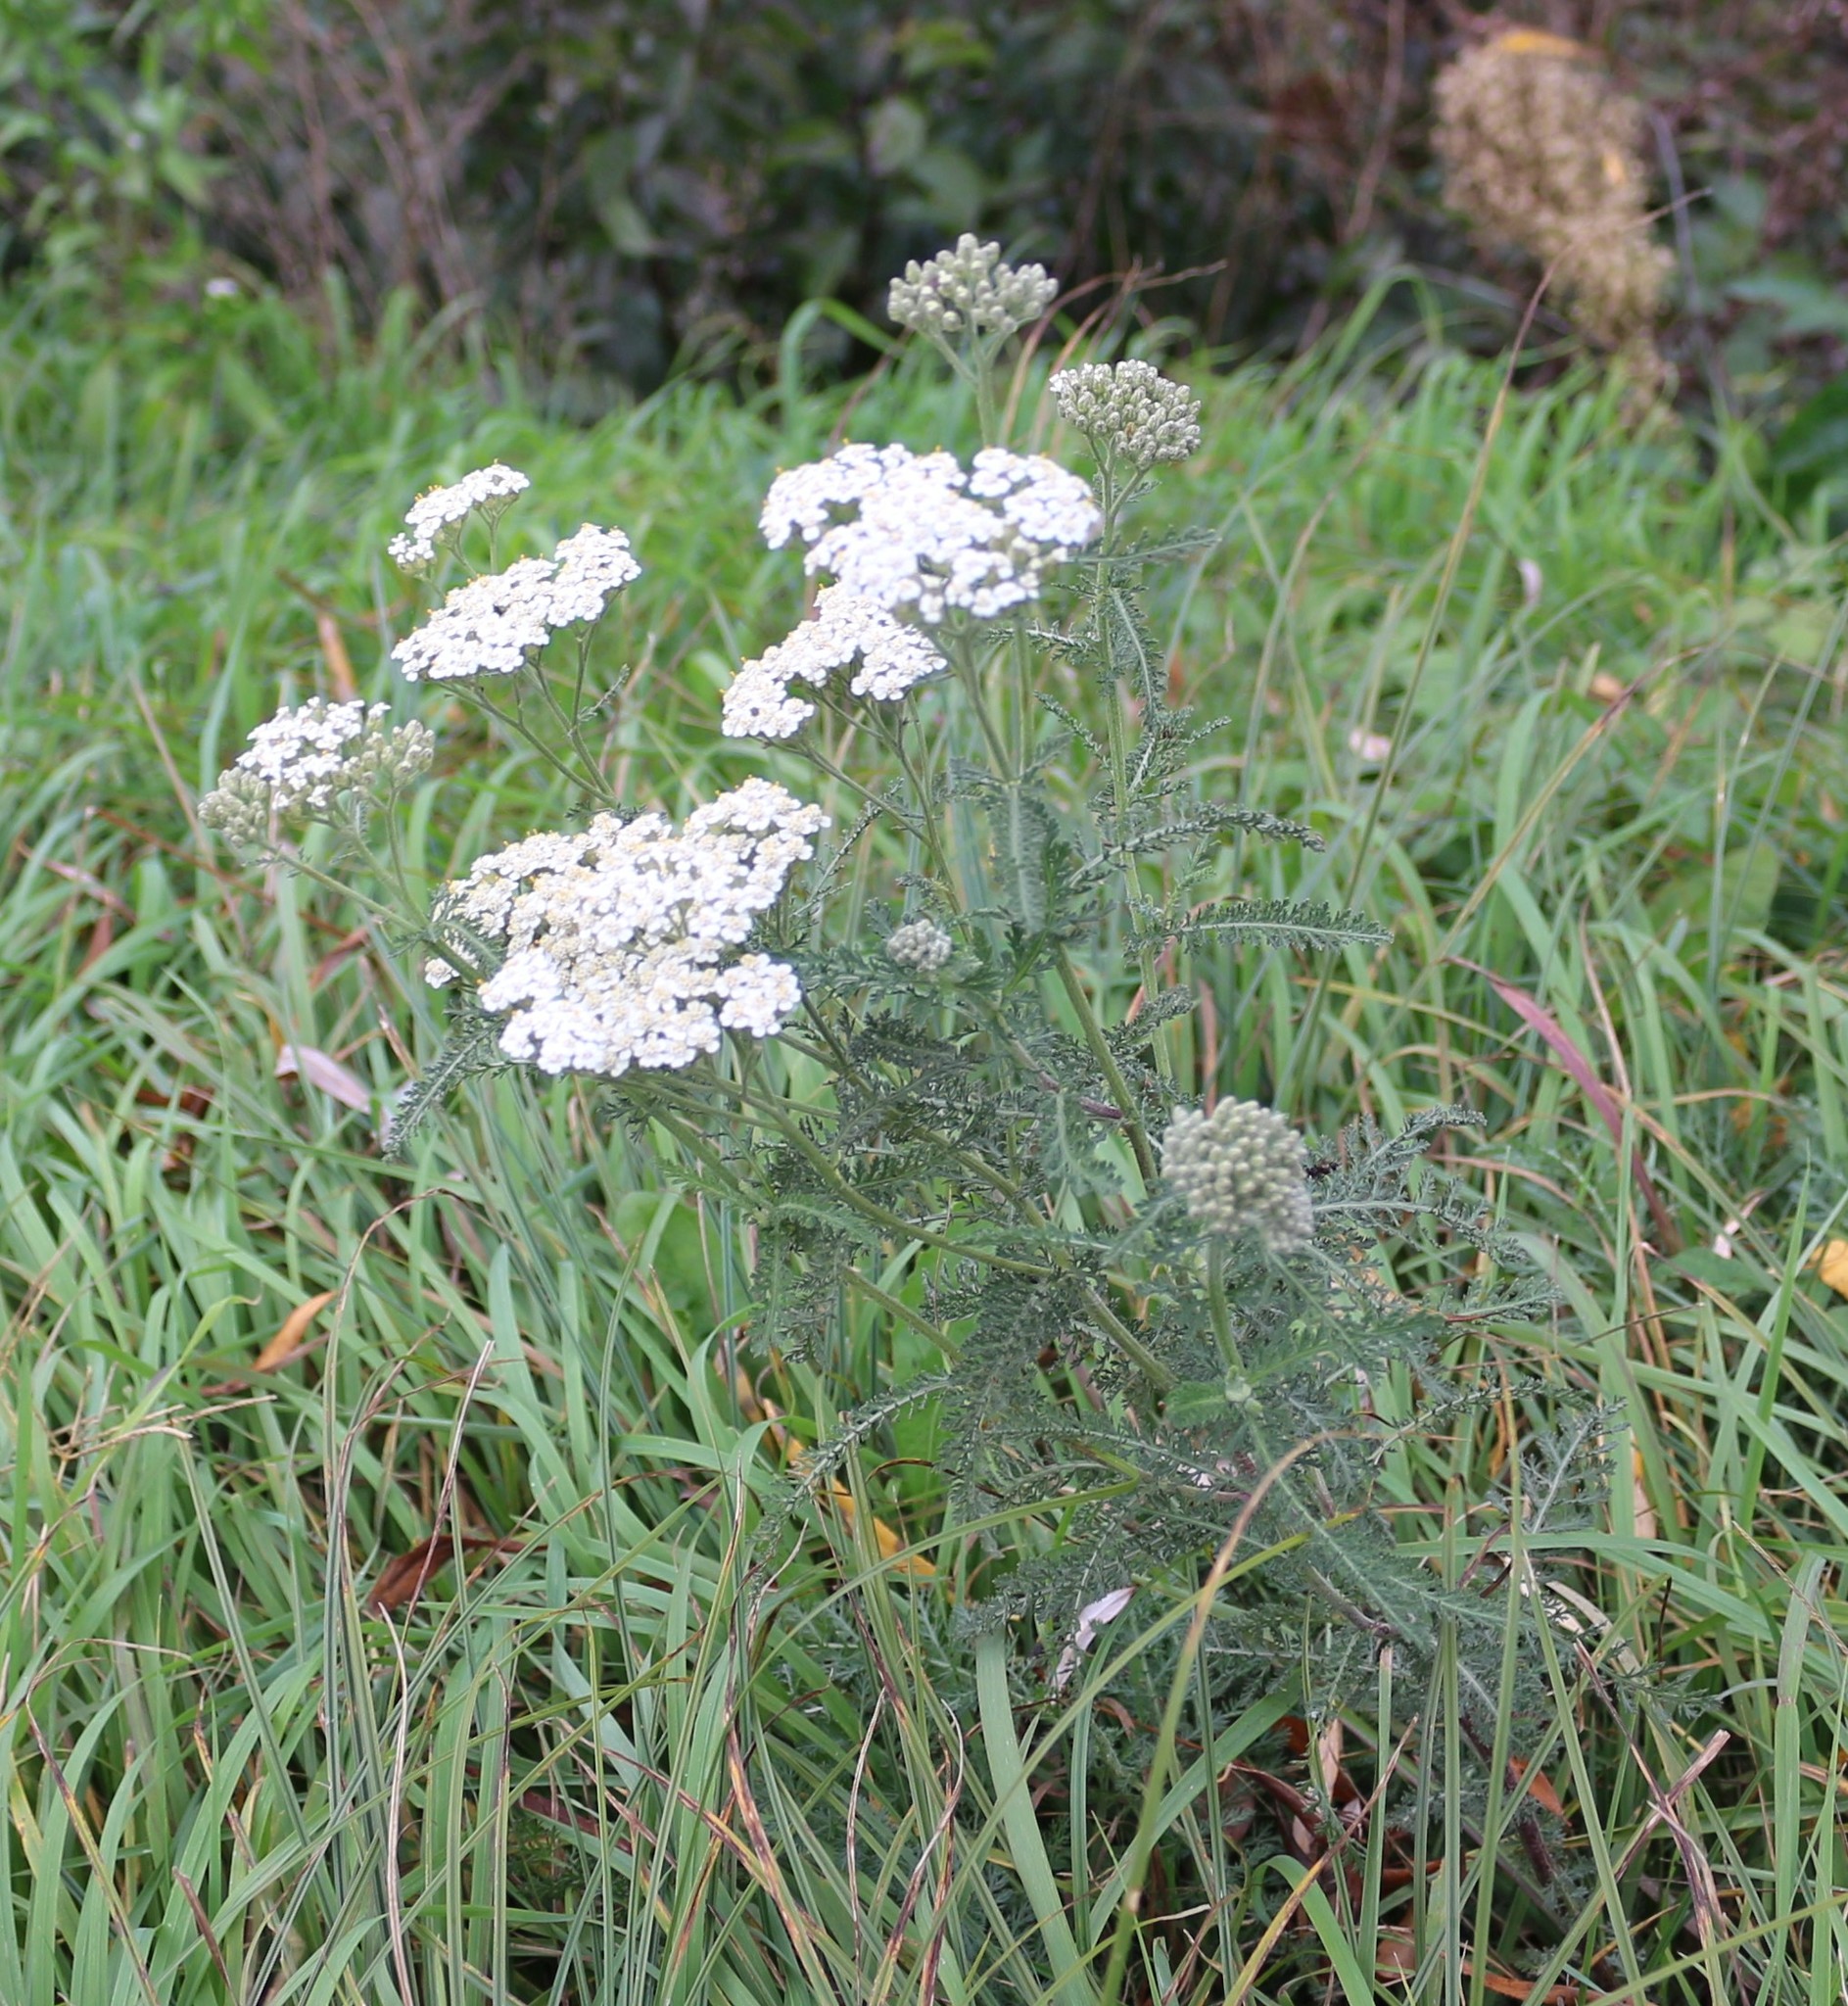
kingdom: Plantae
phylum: Tracheophyta
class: Magnoliopsida
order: Asterales
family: Asteraceae
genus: Achillea
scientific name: Achillea millefolium
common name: Yarrow
